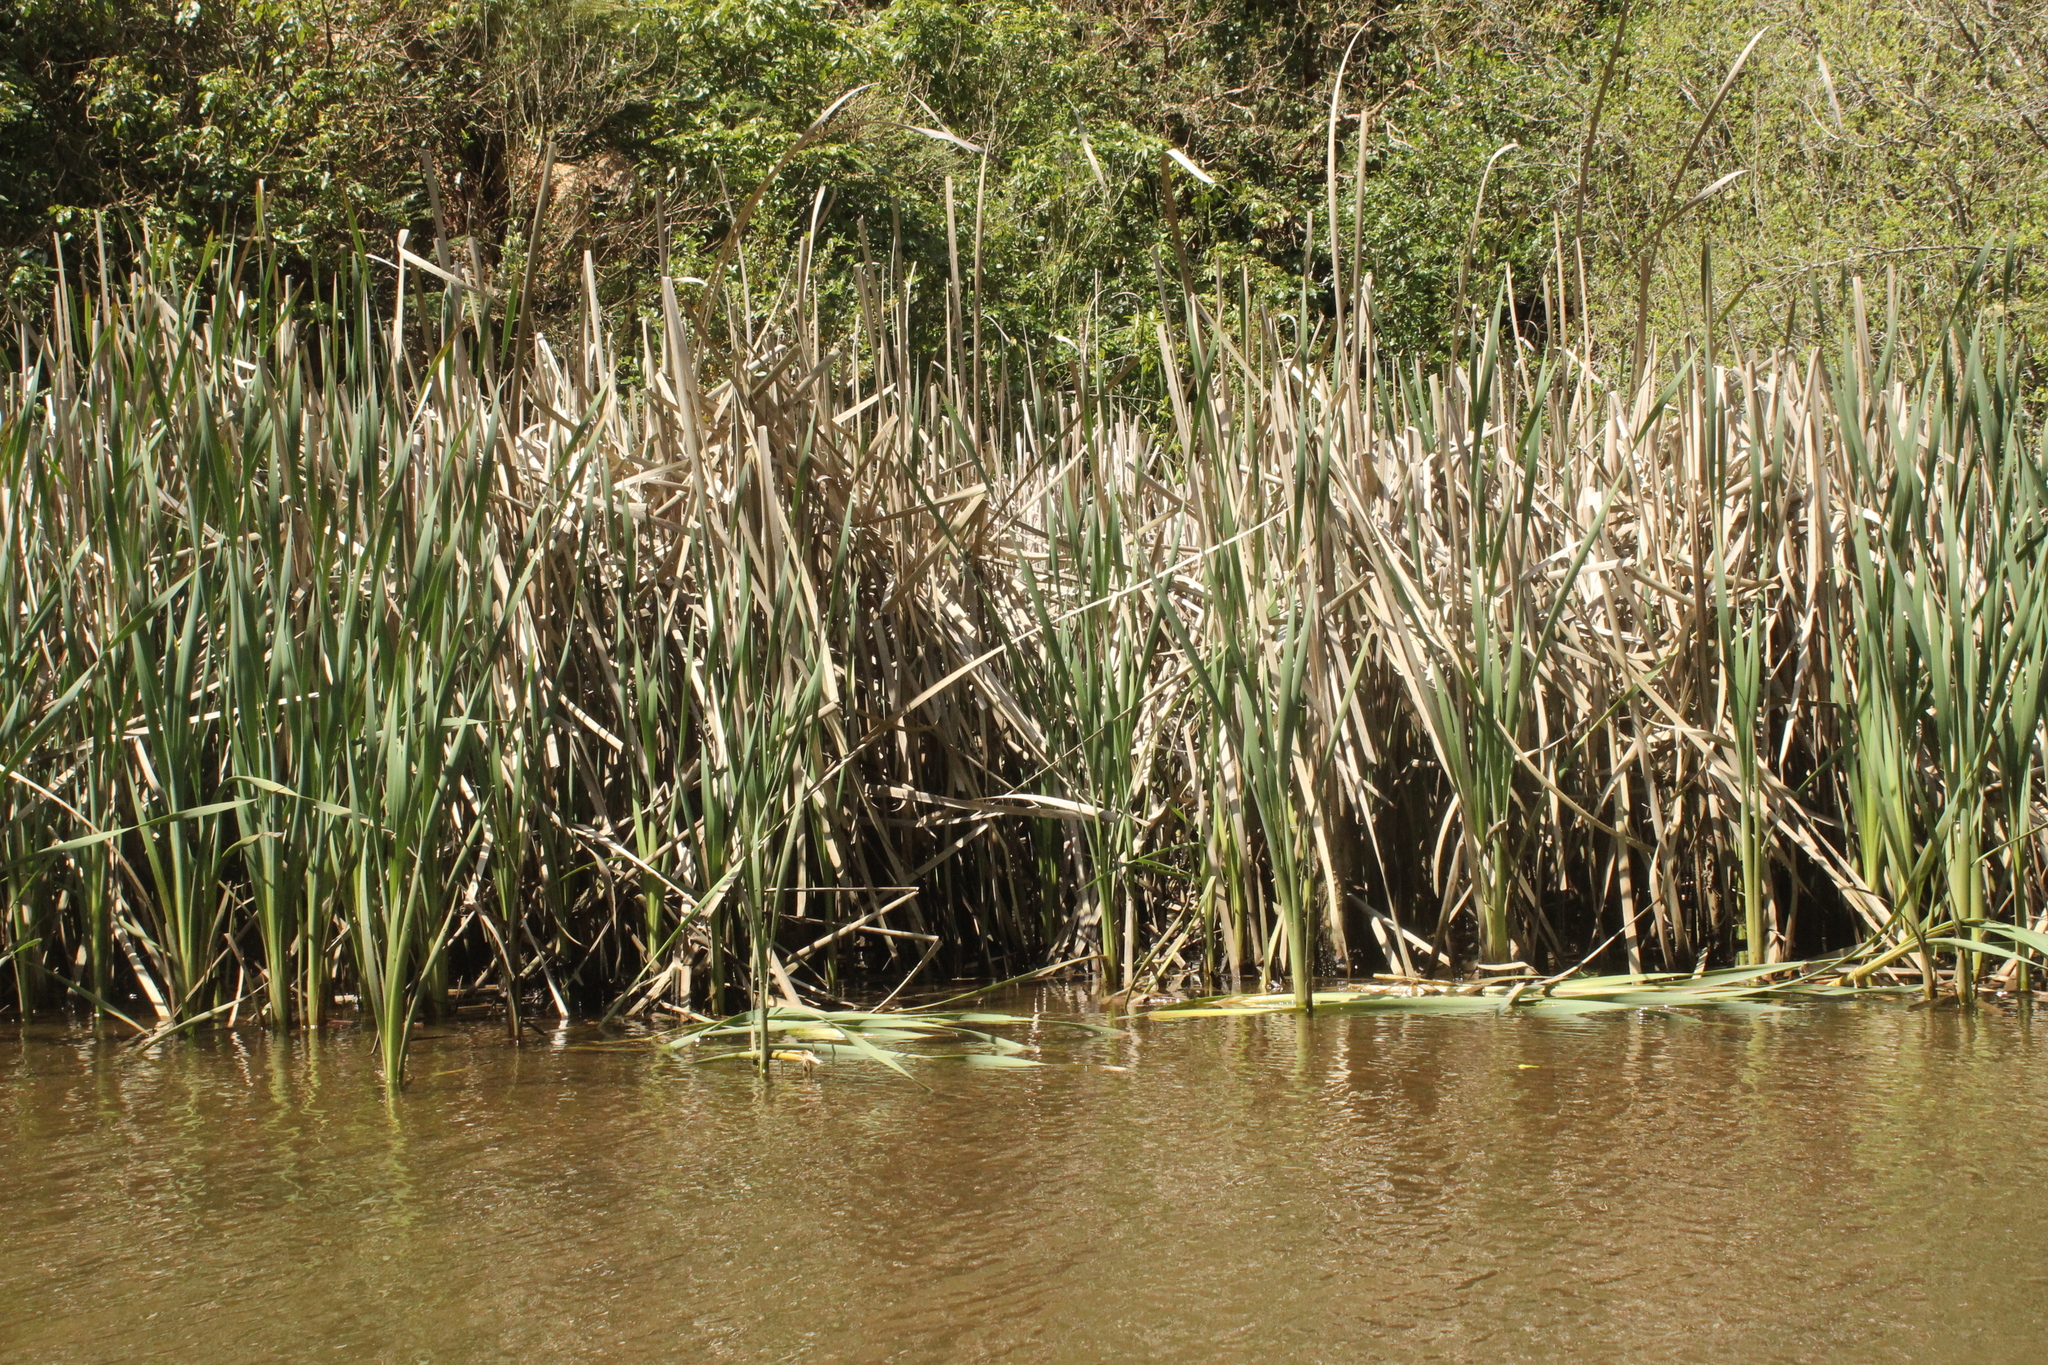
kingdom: Plantae
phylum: Tracheophyta
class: Liliopsida
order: Poales
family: Typhaceae
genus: Typha
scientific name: Typha orientalis
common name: Bullrush
